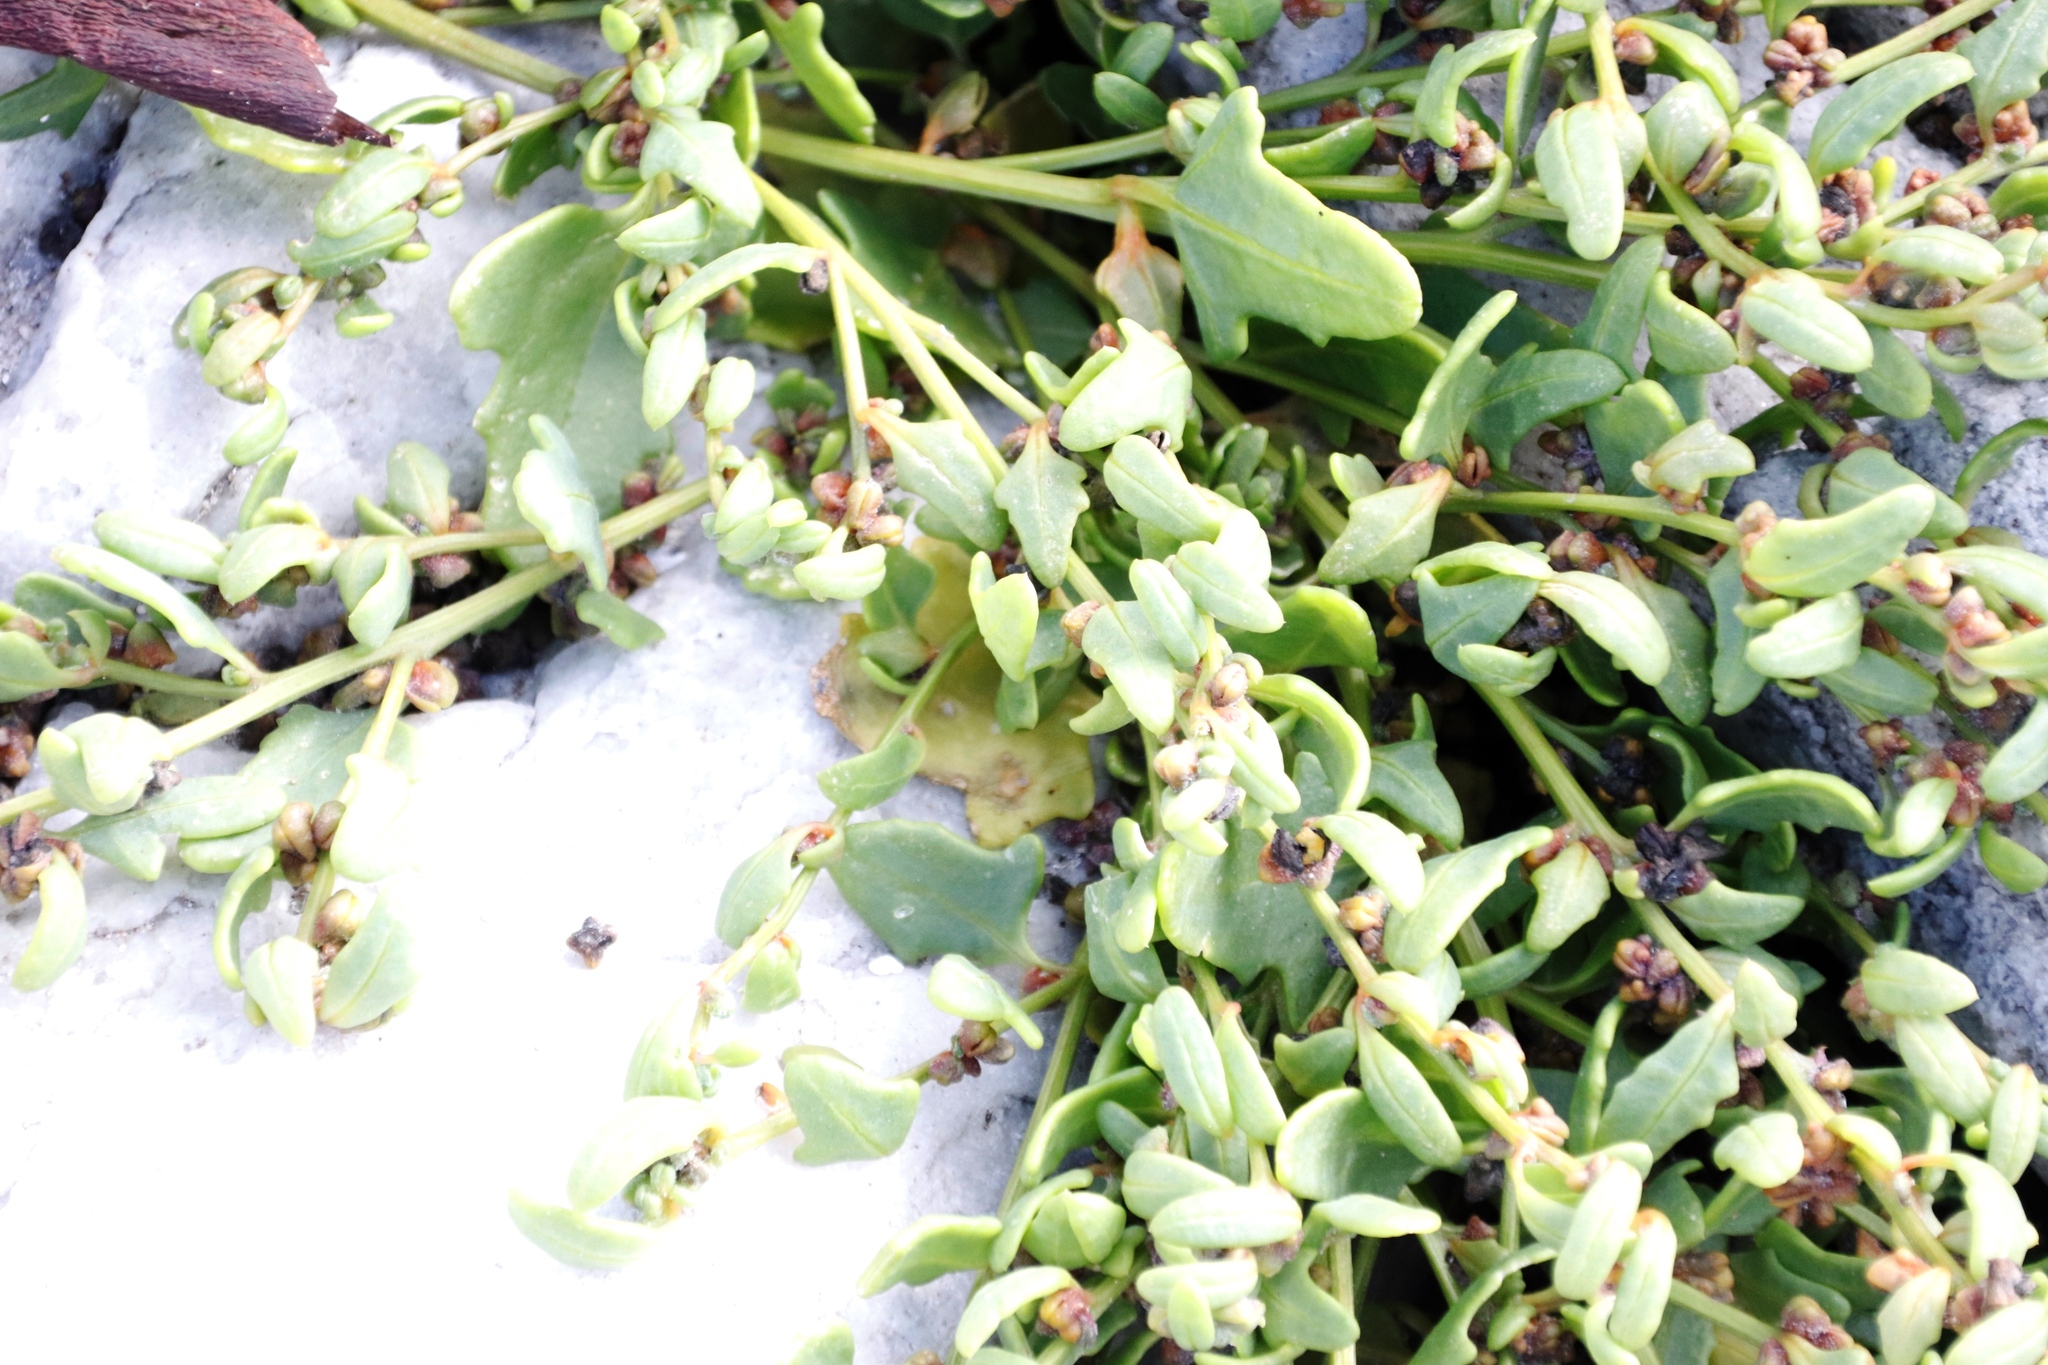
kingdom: Plantae
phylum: Tracheophyta
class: Magnoliopsida
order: Caryophyllales
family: Amaranthaceae
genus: Atriplex
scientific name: Atriplex patula
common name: Common orache
